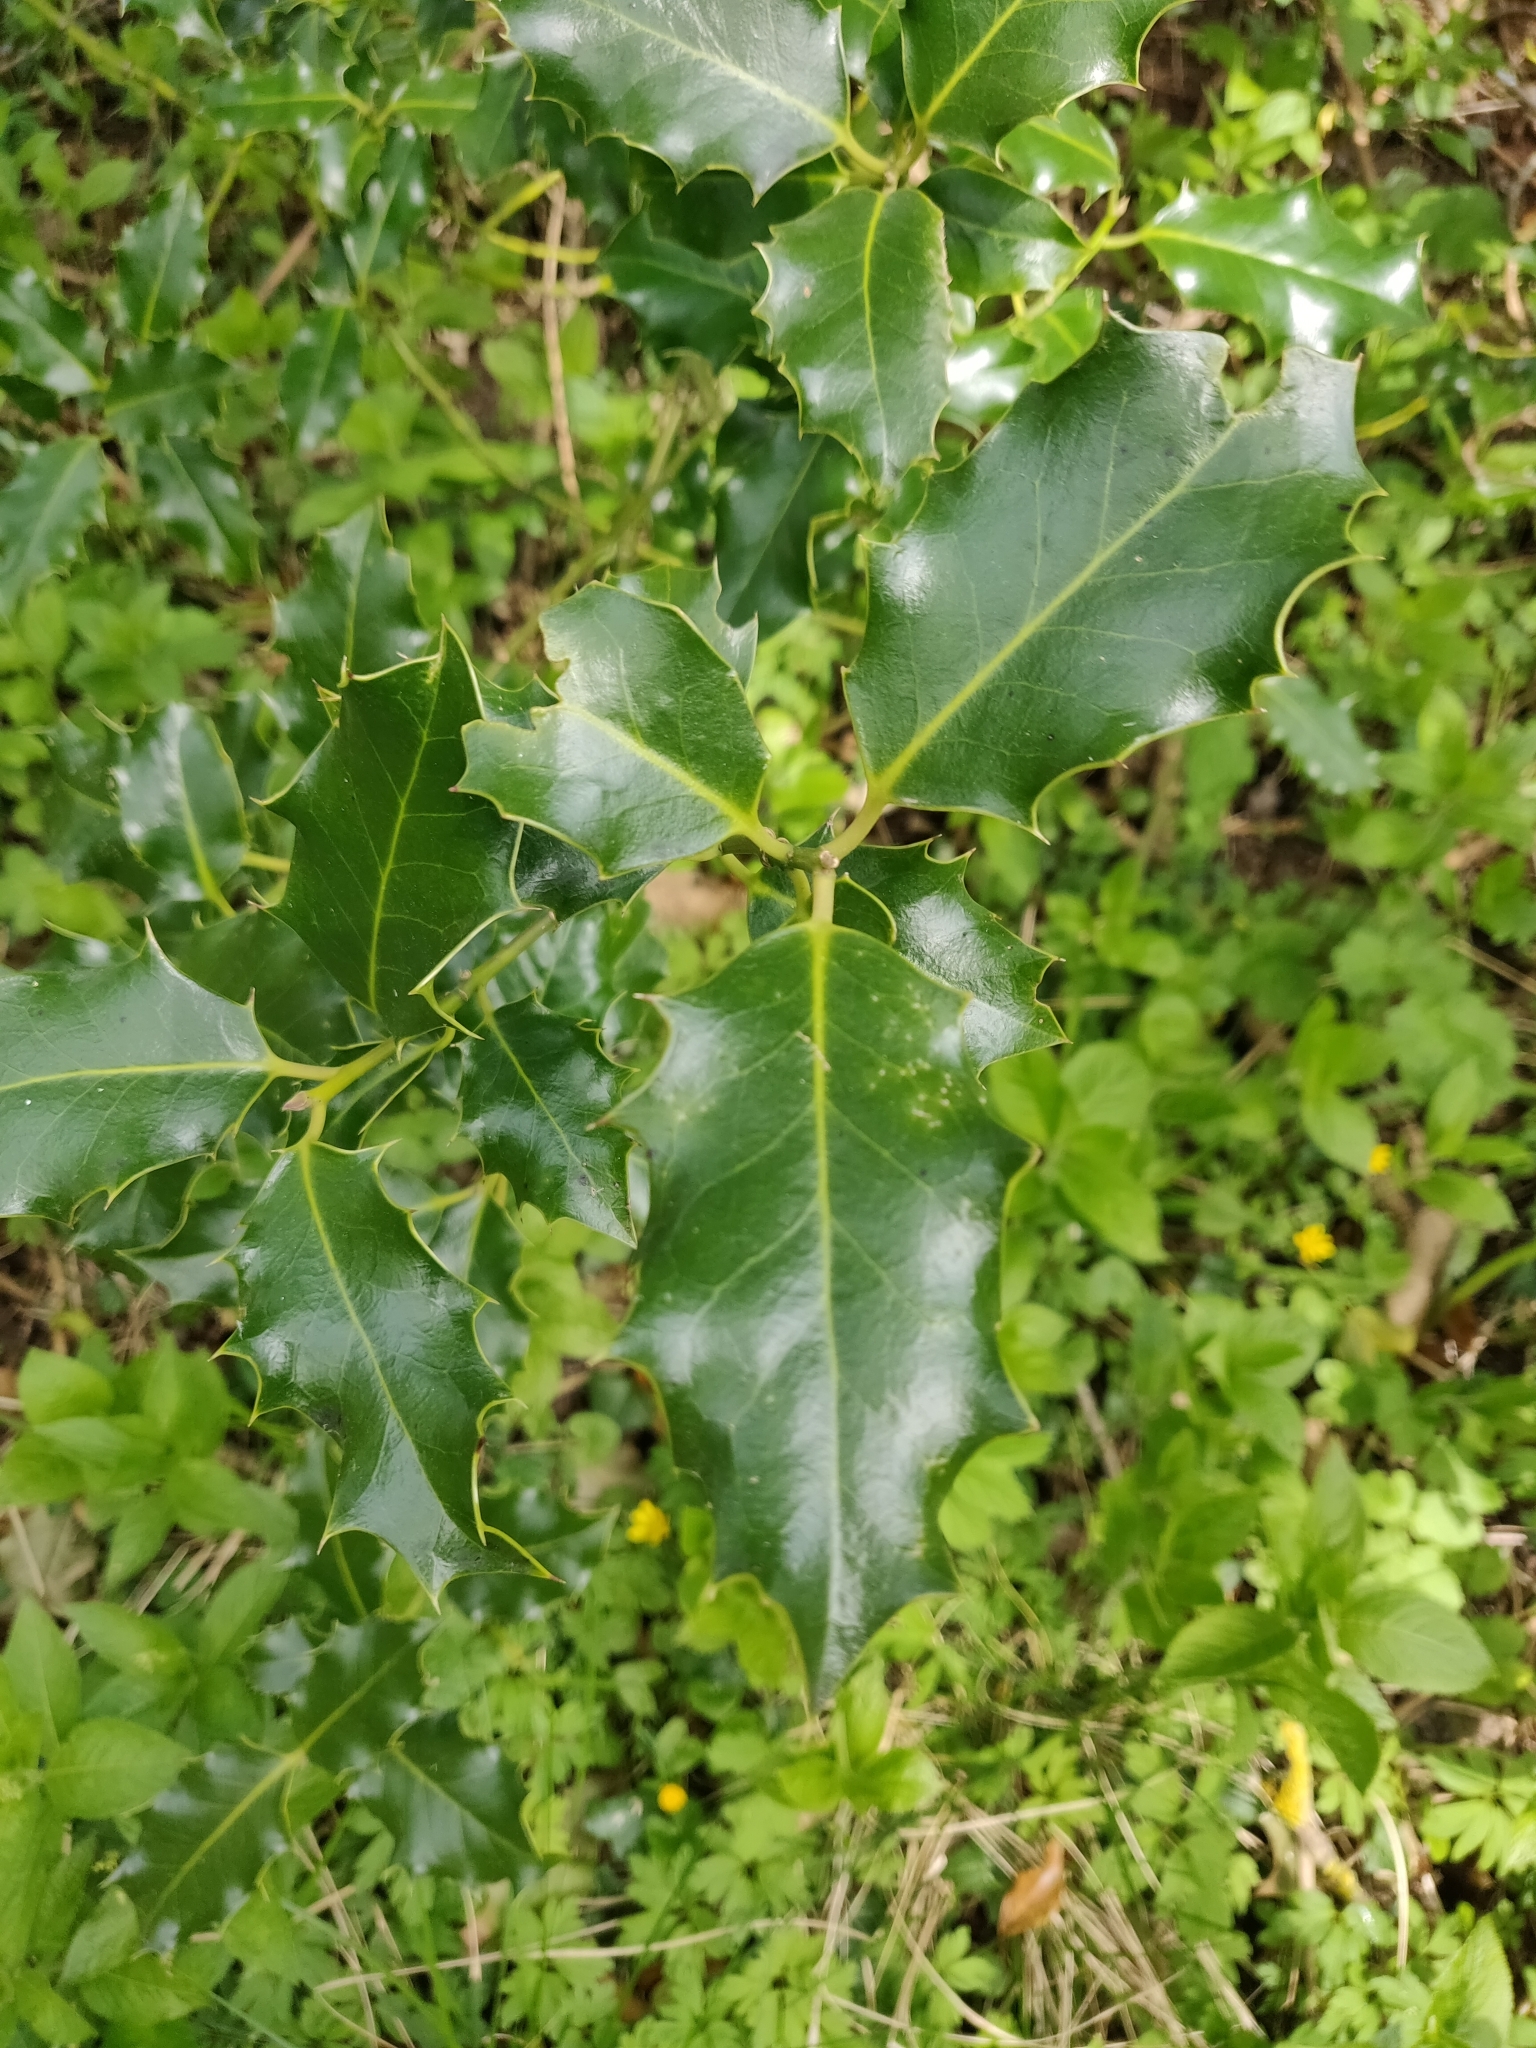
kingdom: Plantae
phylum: Tracheophyta
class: Magnoliopsida
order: Aquifoliales
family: Aquifoliaceae
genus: Ilex
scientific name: Ilex aquifolium
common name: English holly
